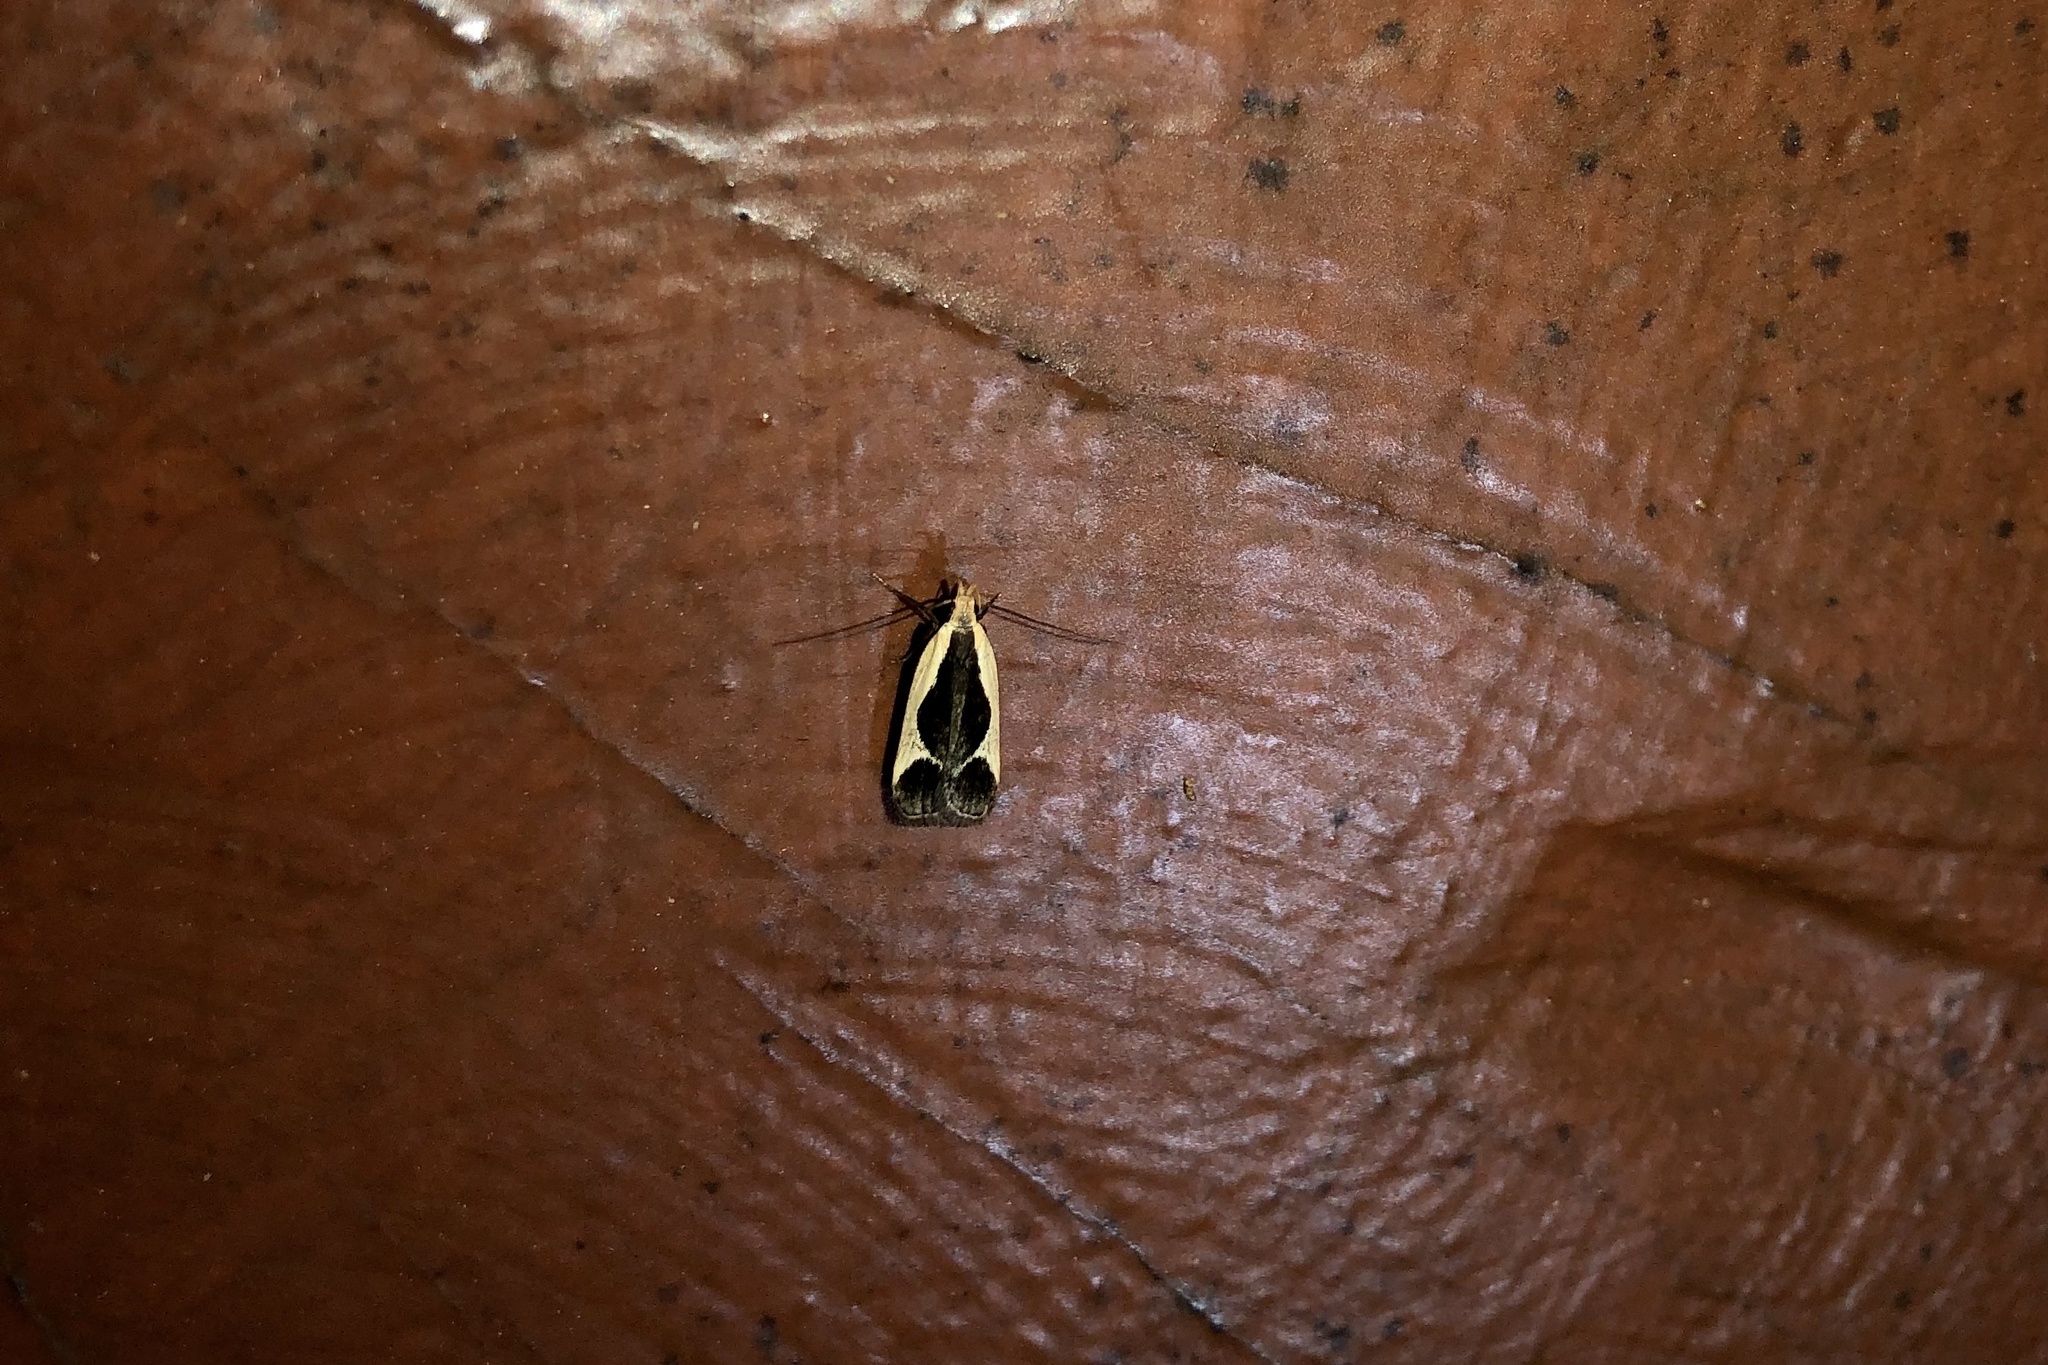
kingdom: Animalia
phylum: Arthropoda
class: Insecta
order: Lepidoptera
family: Gelechiidae
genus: Dichomeris
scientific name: Dichomeris flavocostella
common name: Cream-edged dichomeris moth
